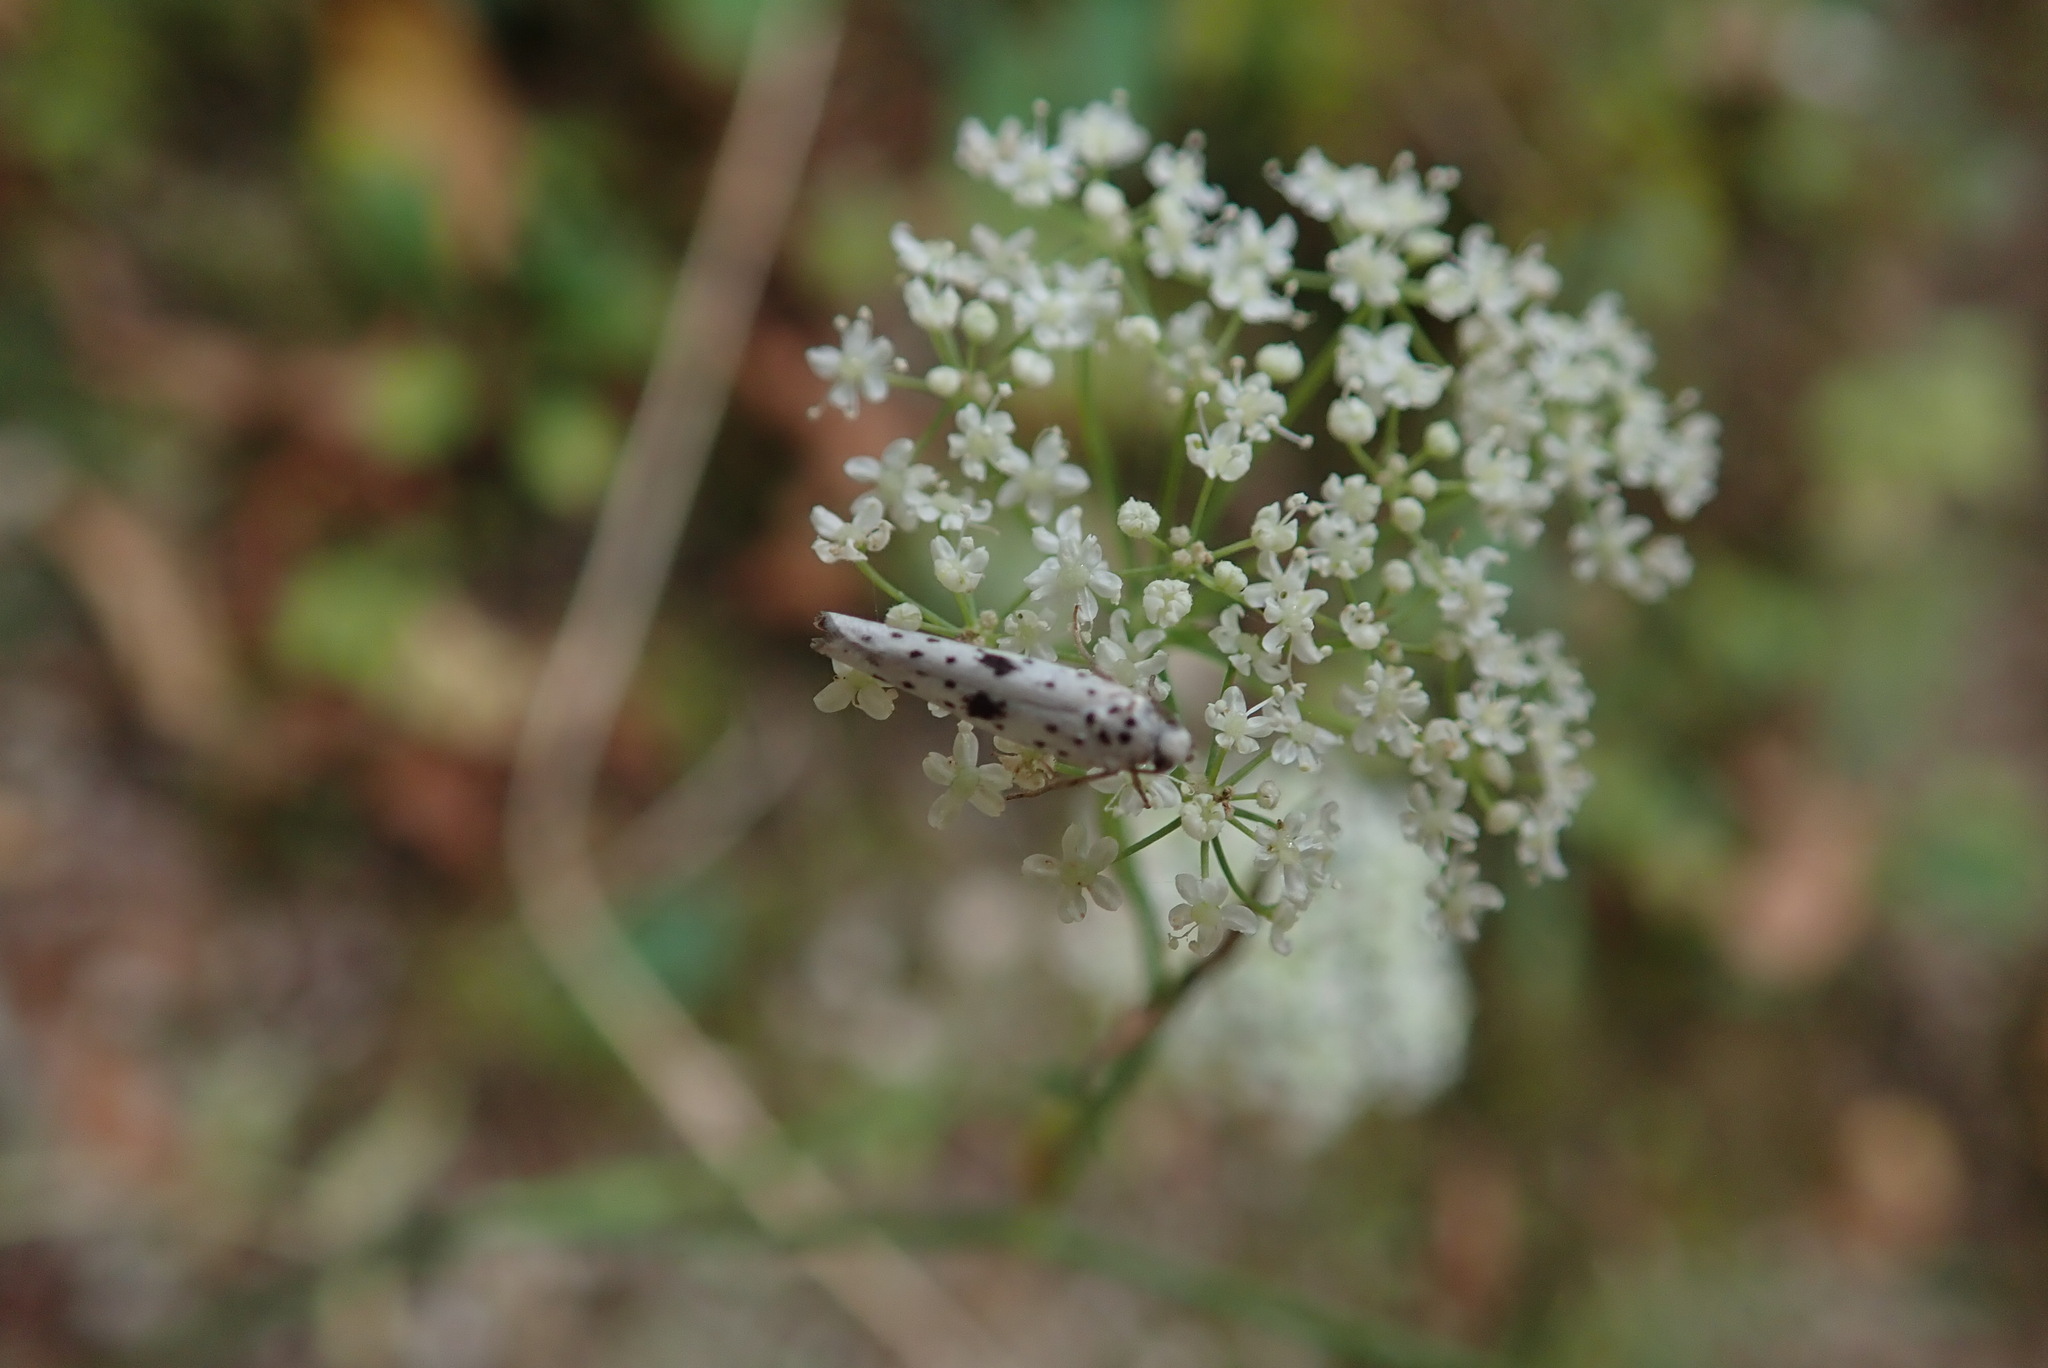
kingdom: Animalia
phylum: Arthropoda
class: Insecta
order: Lepidoptera
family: Yponomeutidae
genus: Yponomeuta
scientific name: Yponomeuta plumbella
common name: Black-tipped ermine
